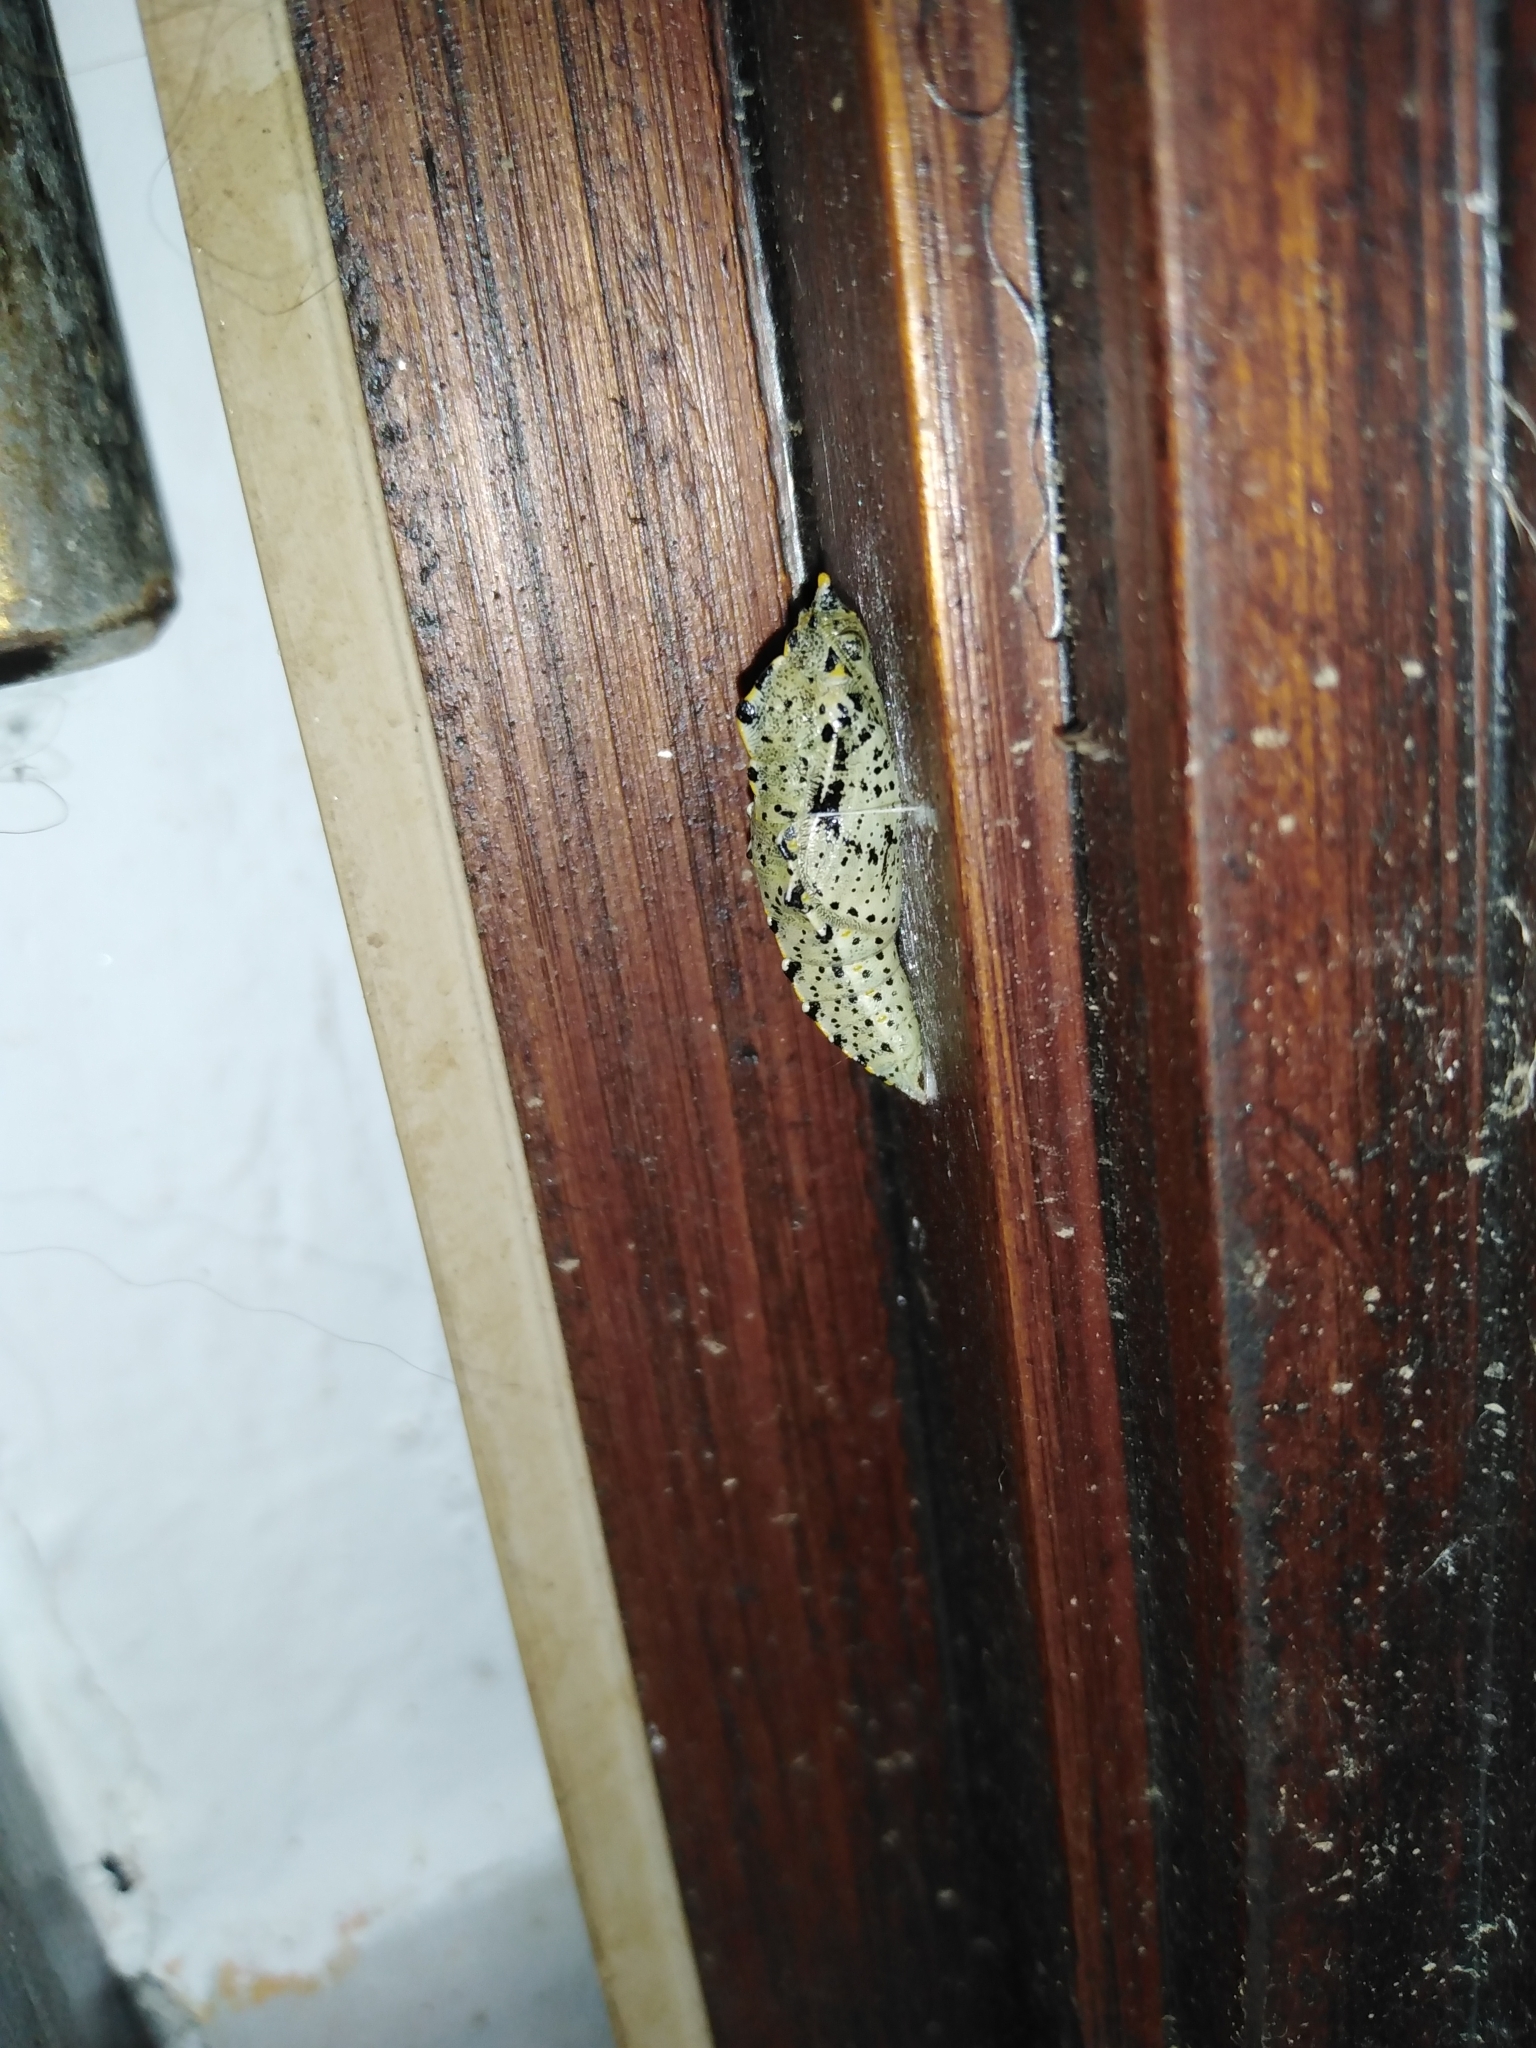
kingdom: Animalia
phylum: Arthropoda
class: Insecta
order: Lepidoptera
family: Pieridae
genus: Pieris
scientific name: Pieris brassicae
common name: Large white
